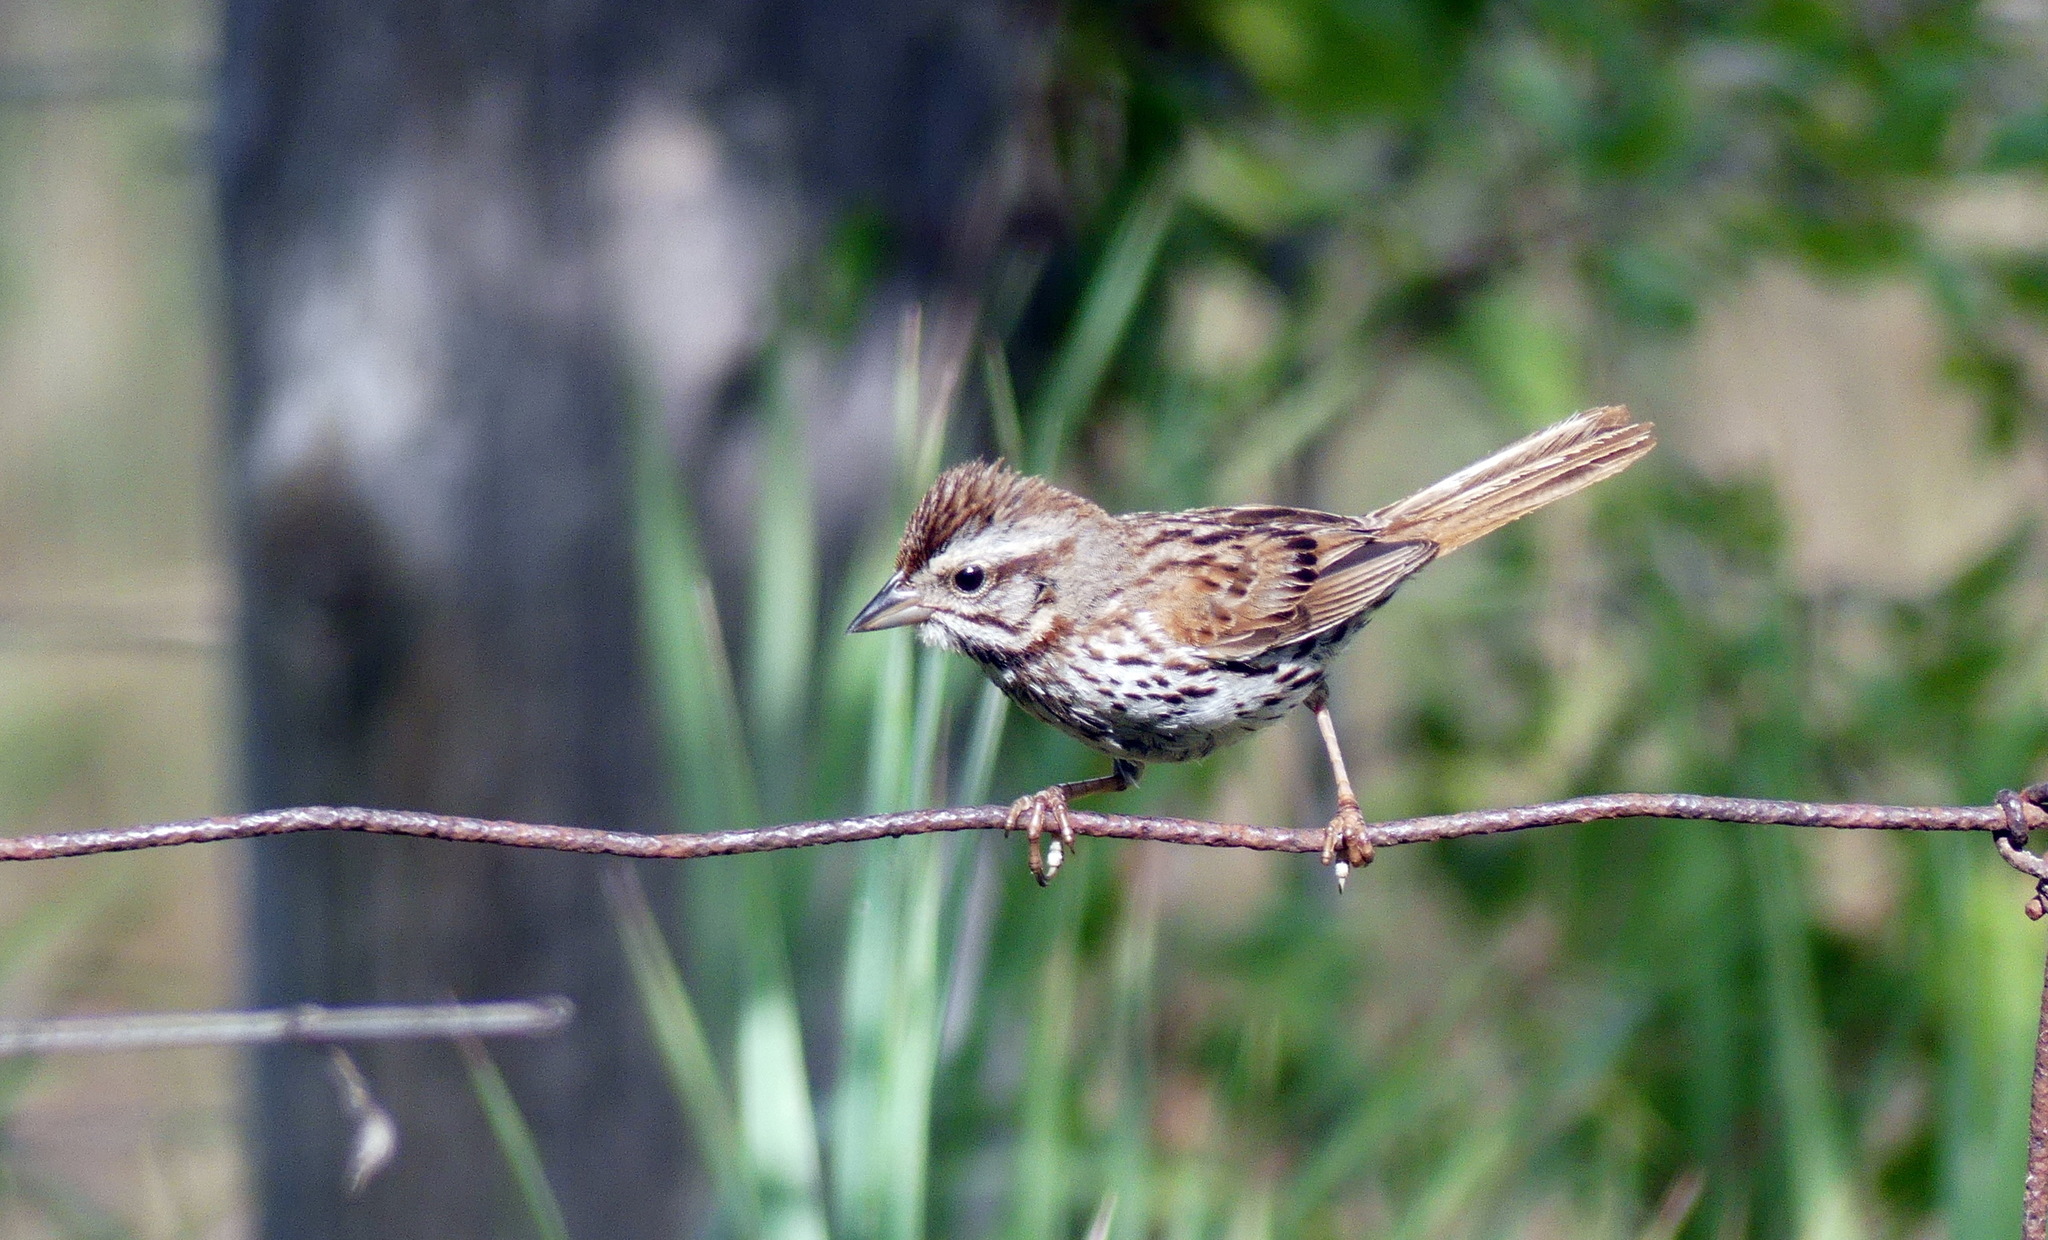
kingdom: Animalia
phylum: Chordata
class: Aves
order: Passeriformes
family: Passerellidae
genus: Melospiza
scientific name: Melospiza melodia
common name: Song sparrow
